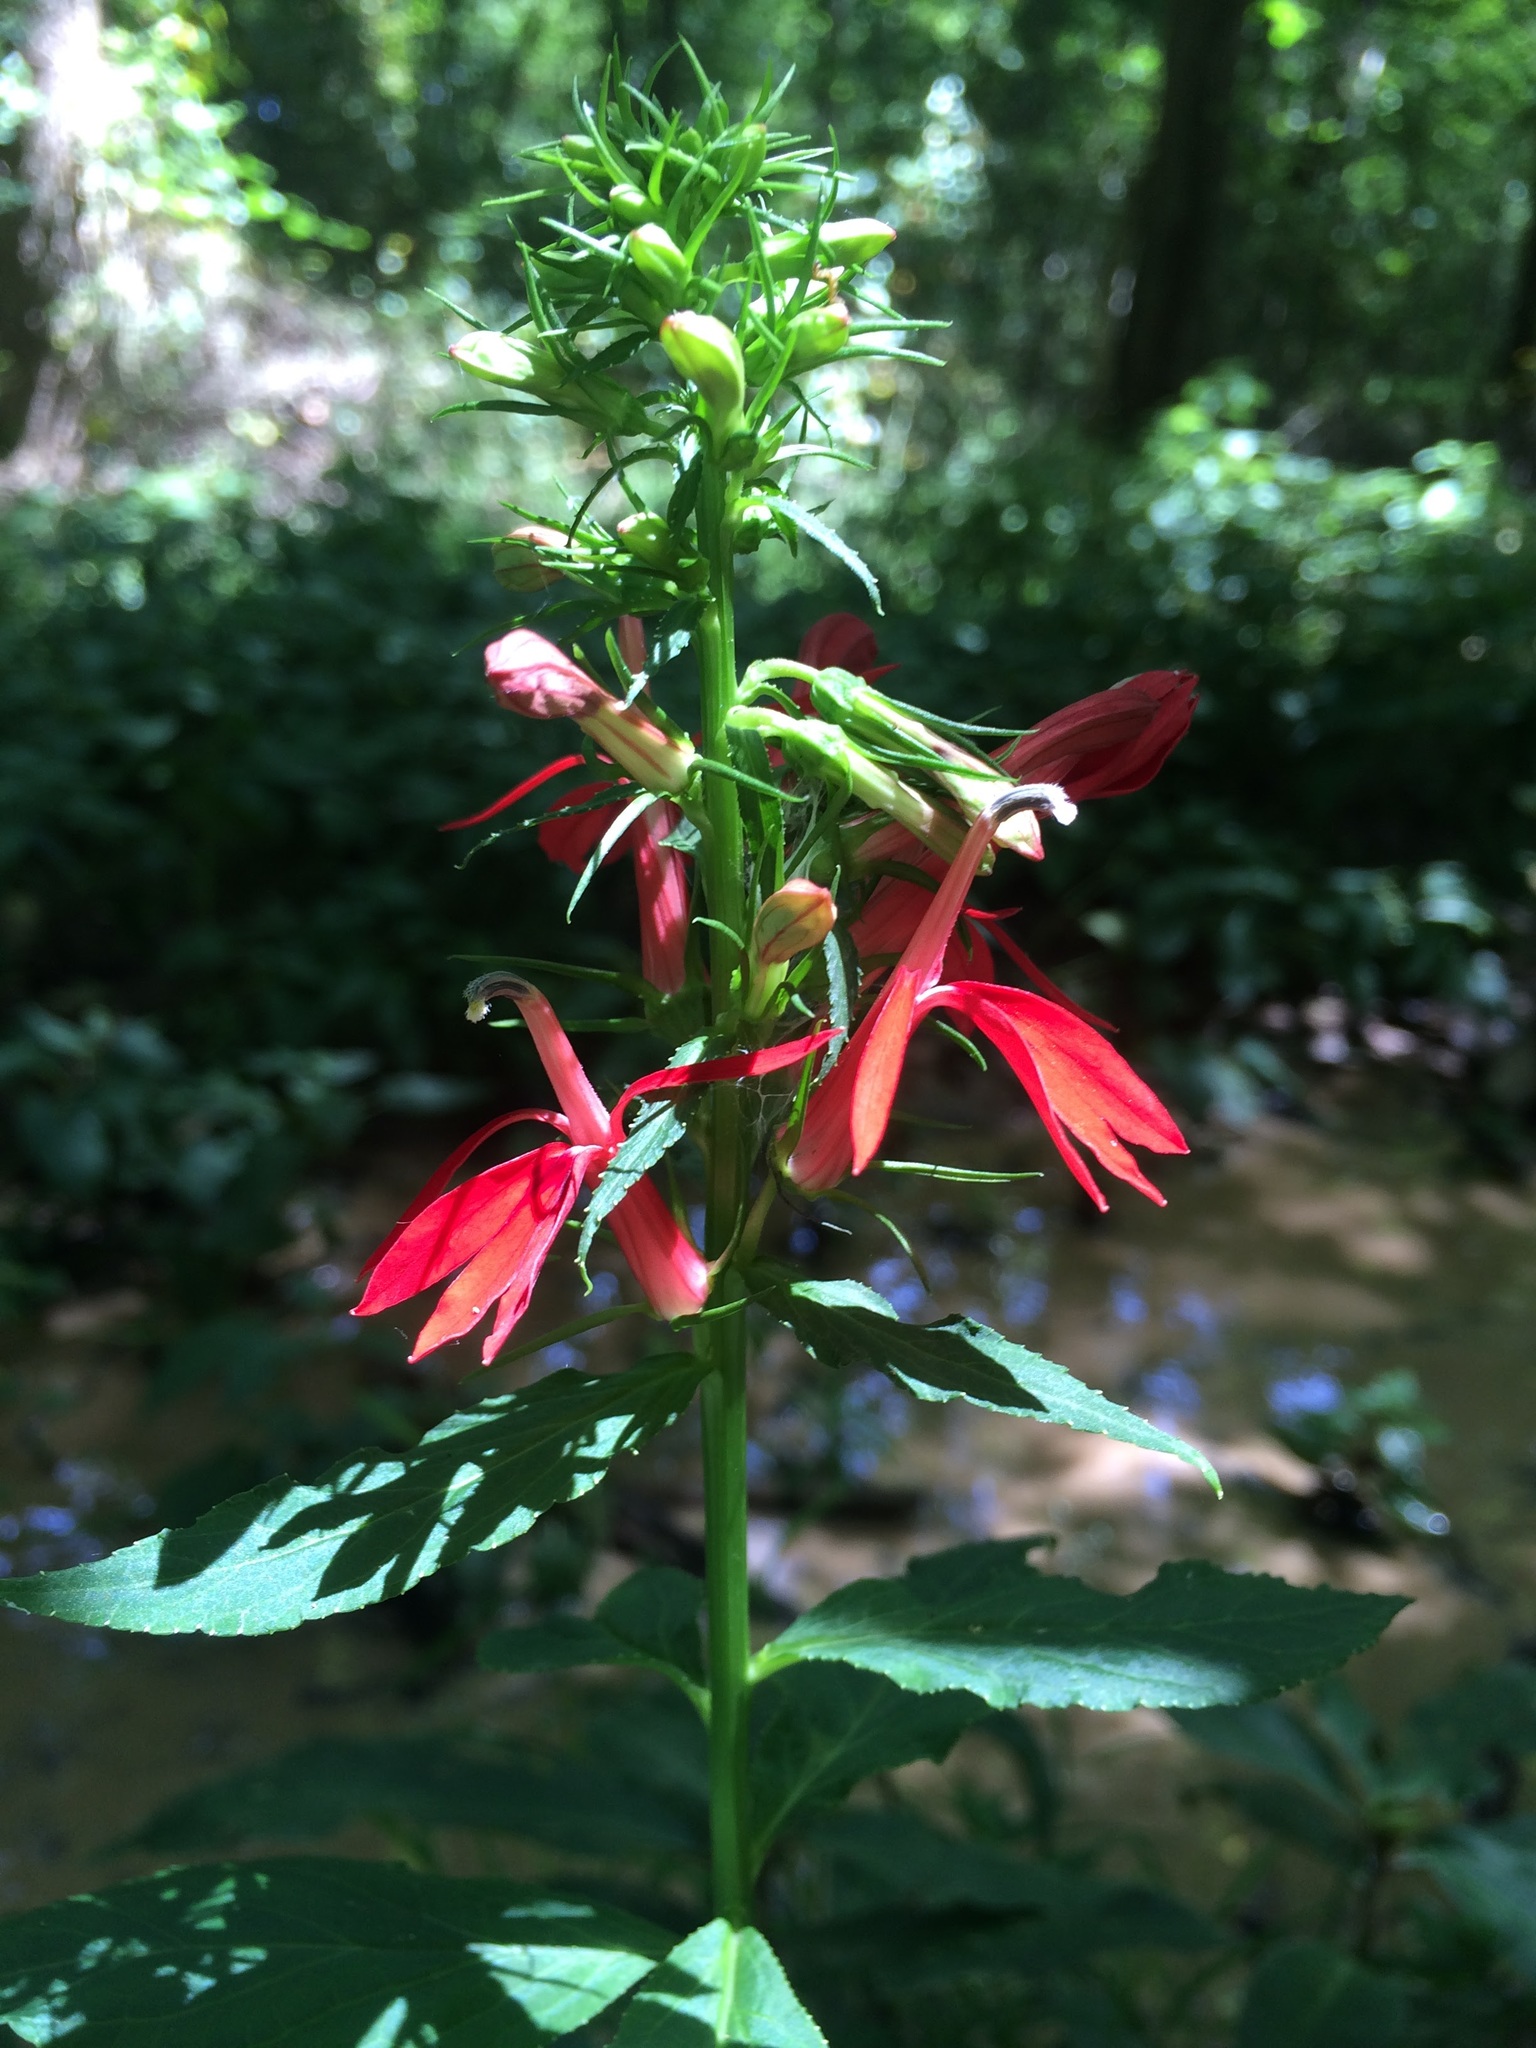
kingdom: Plantae
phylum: Tracheophyta
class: Magnoliopsida
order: Asterales
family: Campanulaceae
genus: Lobelia
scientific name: Lobelia cardinalis
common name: Cardinal flower
